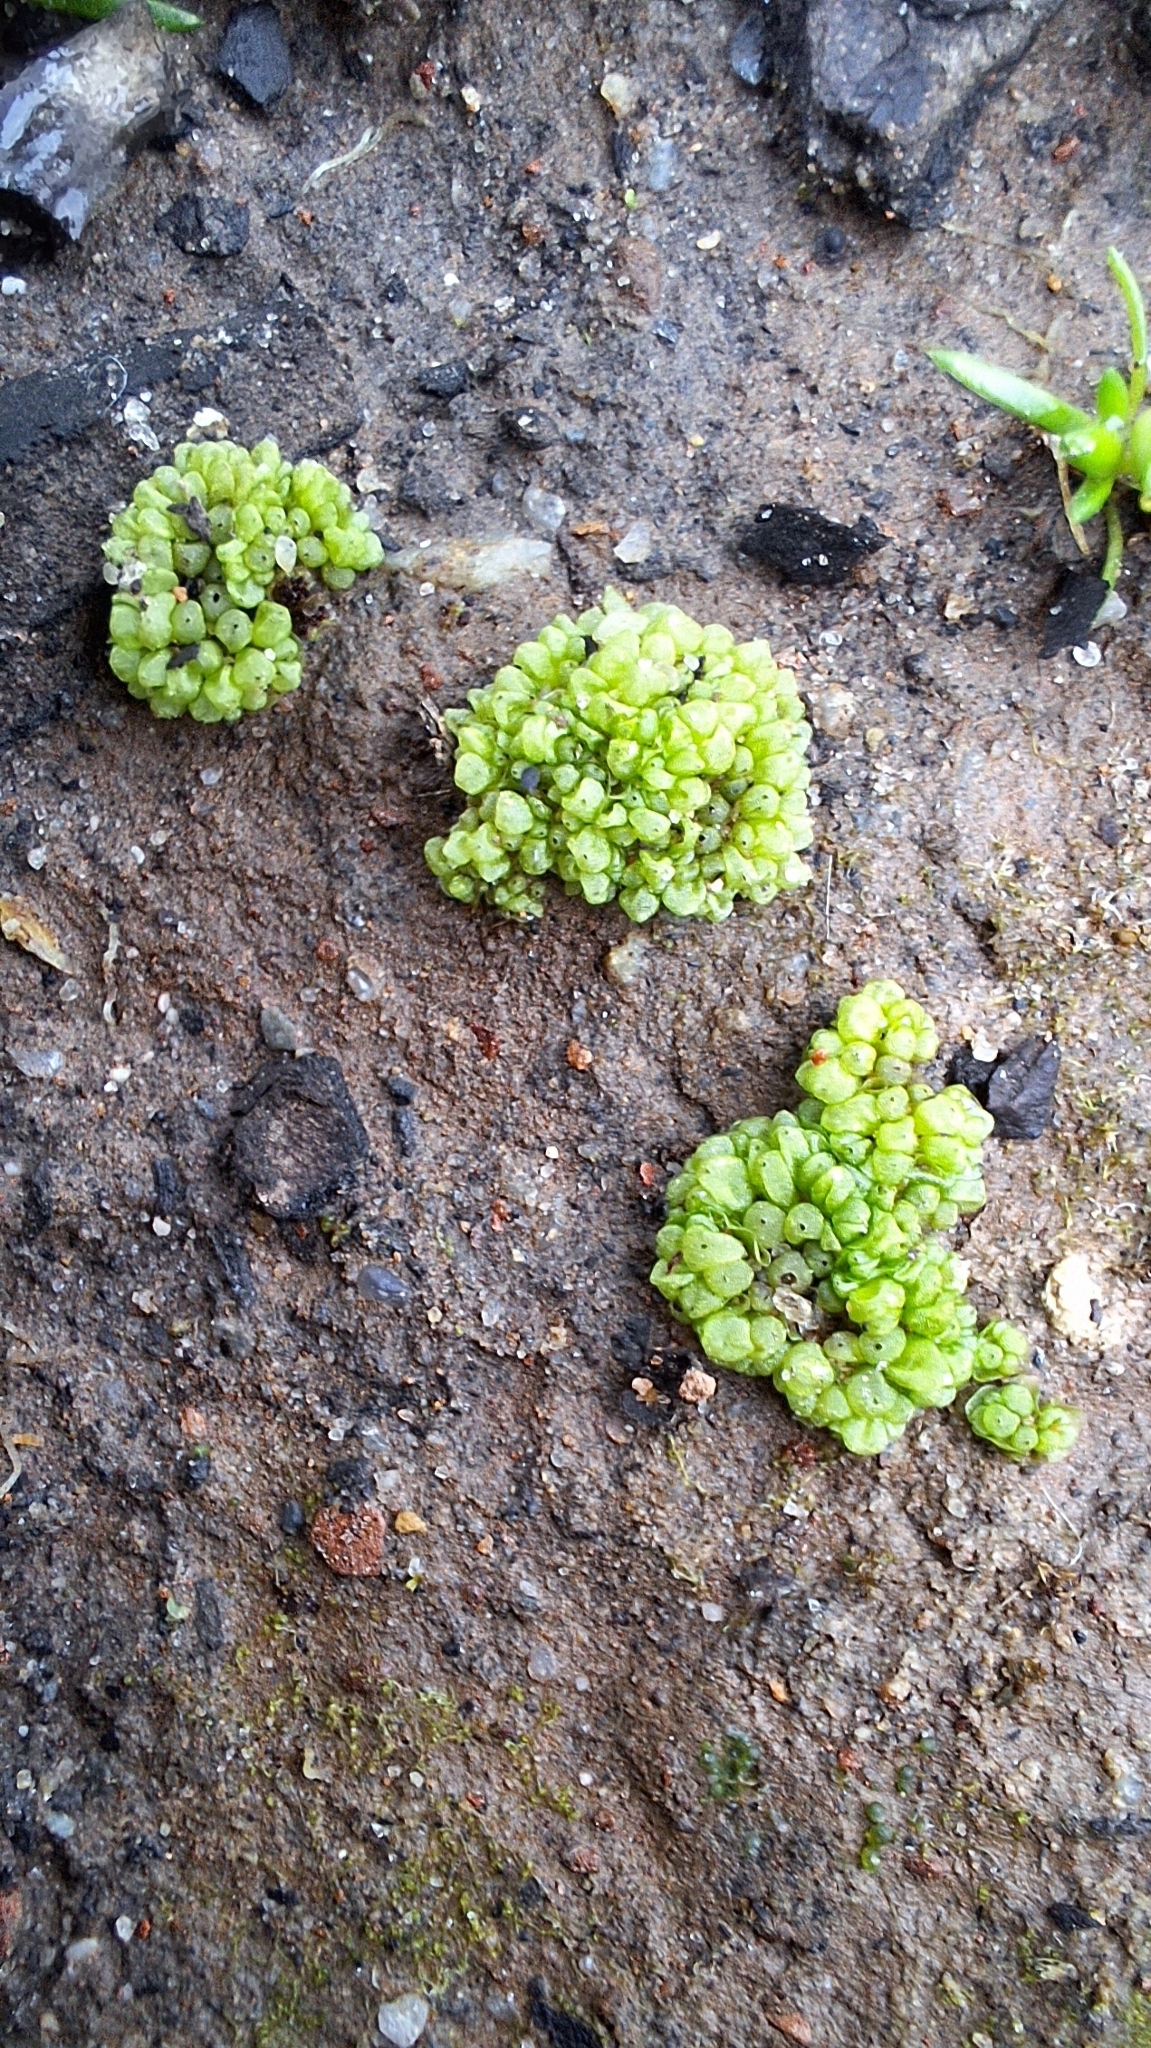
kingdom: Plantae
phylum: Marchantiophyta
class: Marchantiopsida
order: Sphaerocarpales
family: Sphaerocarpaceae
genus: Sphaerocarpos
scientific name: Sphaerocarpos texanus
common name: Texas balloonwort
